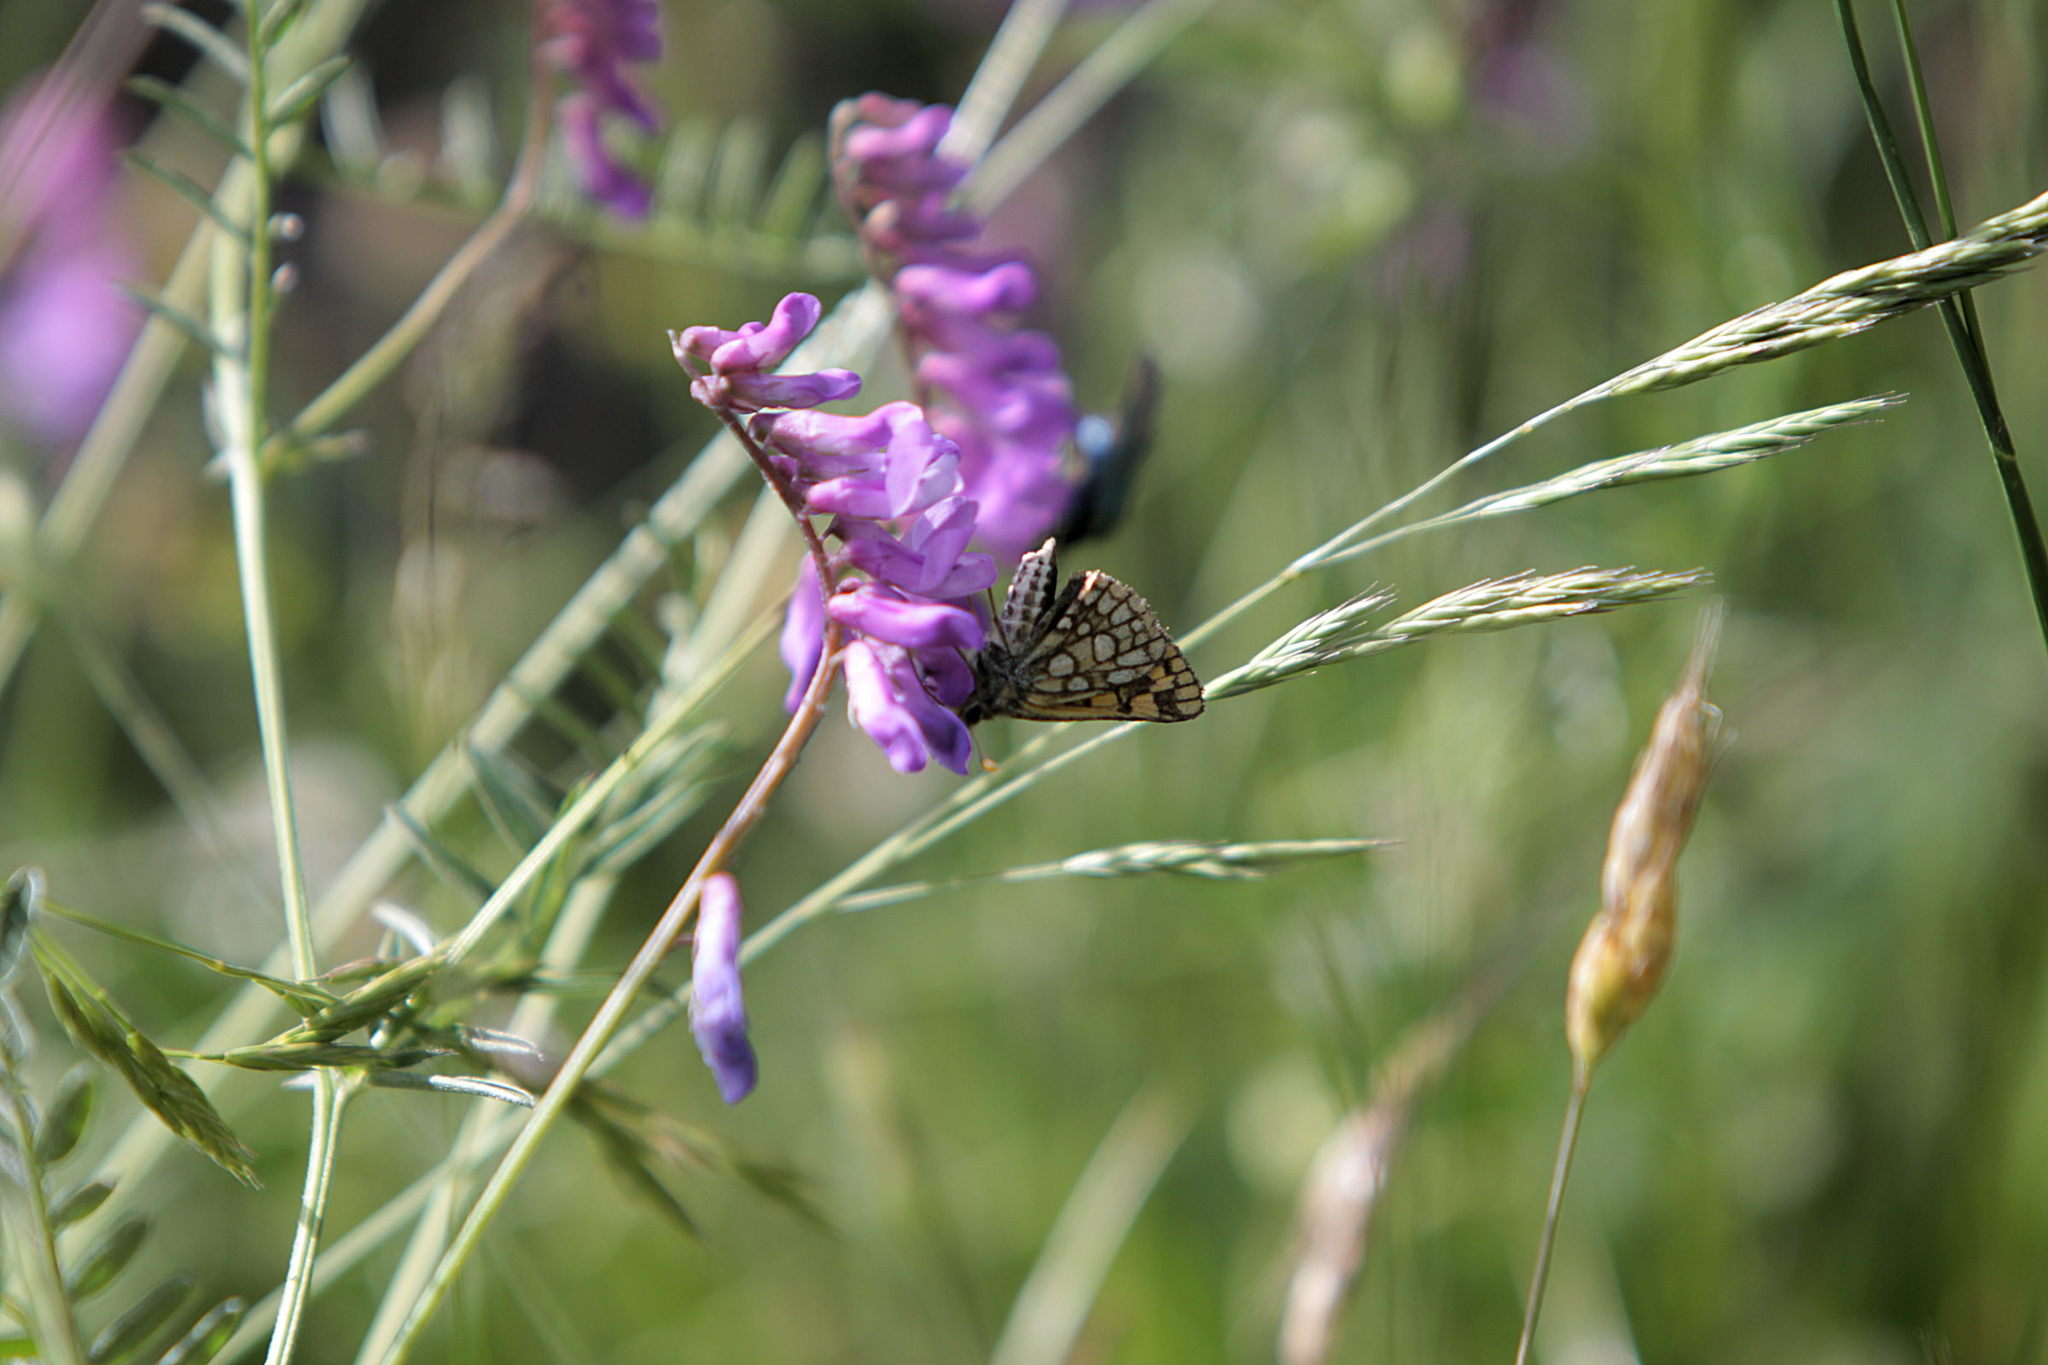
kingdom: Animalia
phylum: Arthropoda
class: Insecta
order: Lepidoptera
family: Hesperiidae
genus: Carterocephalus
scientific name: Carterocephalus palaemon
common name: Chequered skipper
